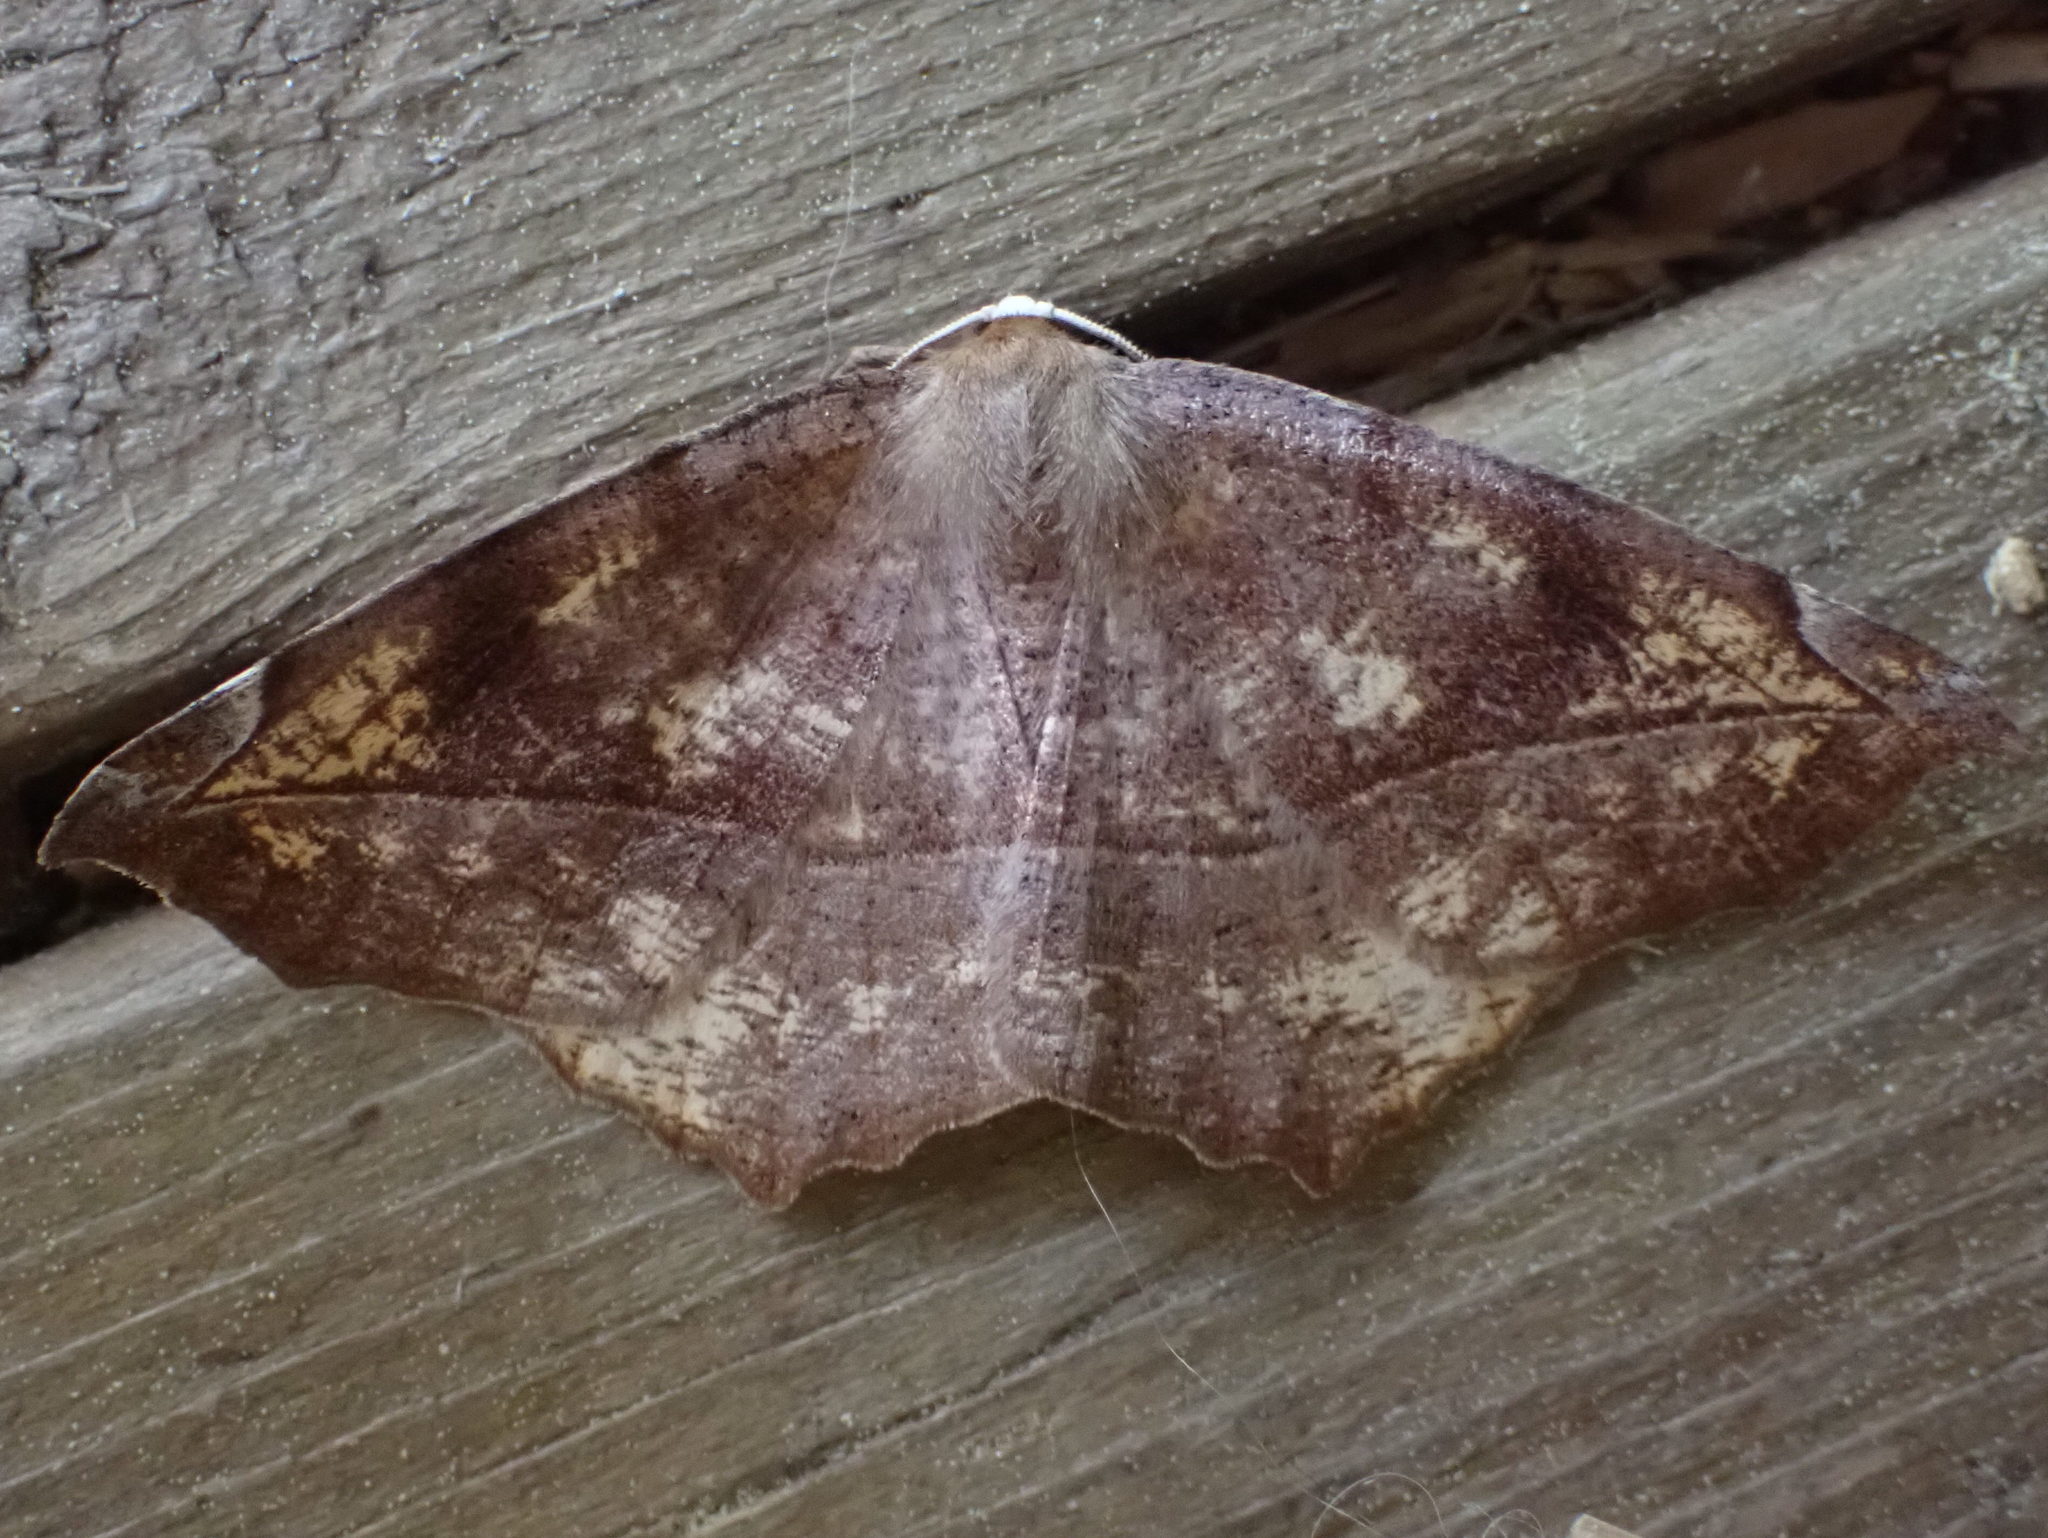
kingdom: Animalia
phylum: Arthropoda
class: Insecta
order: Lepidoptera
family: Geometridae
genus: Eutrapela
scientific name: Eutrapela clemataria
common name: Curved-toothed geometer
